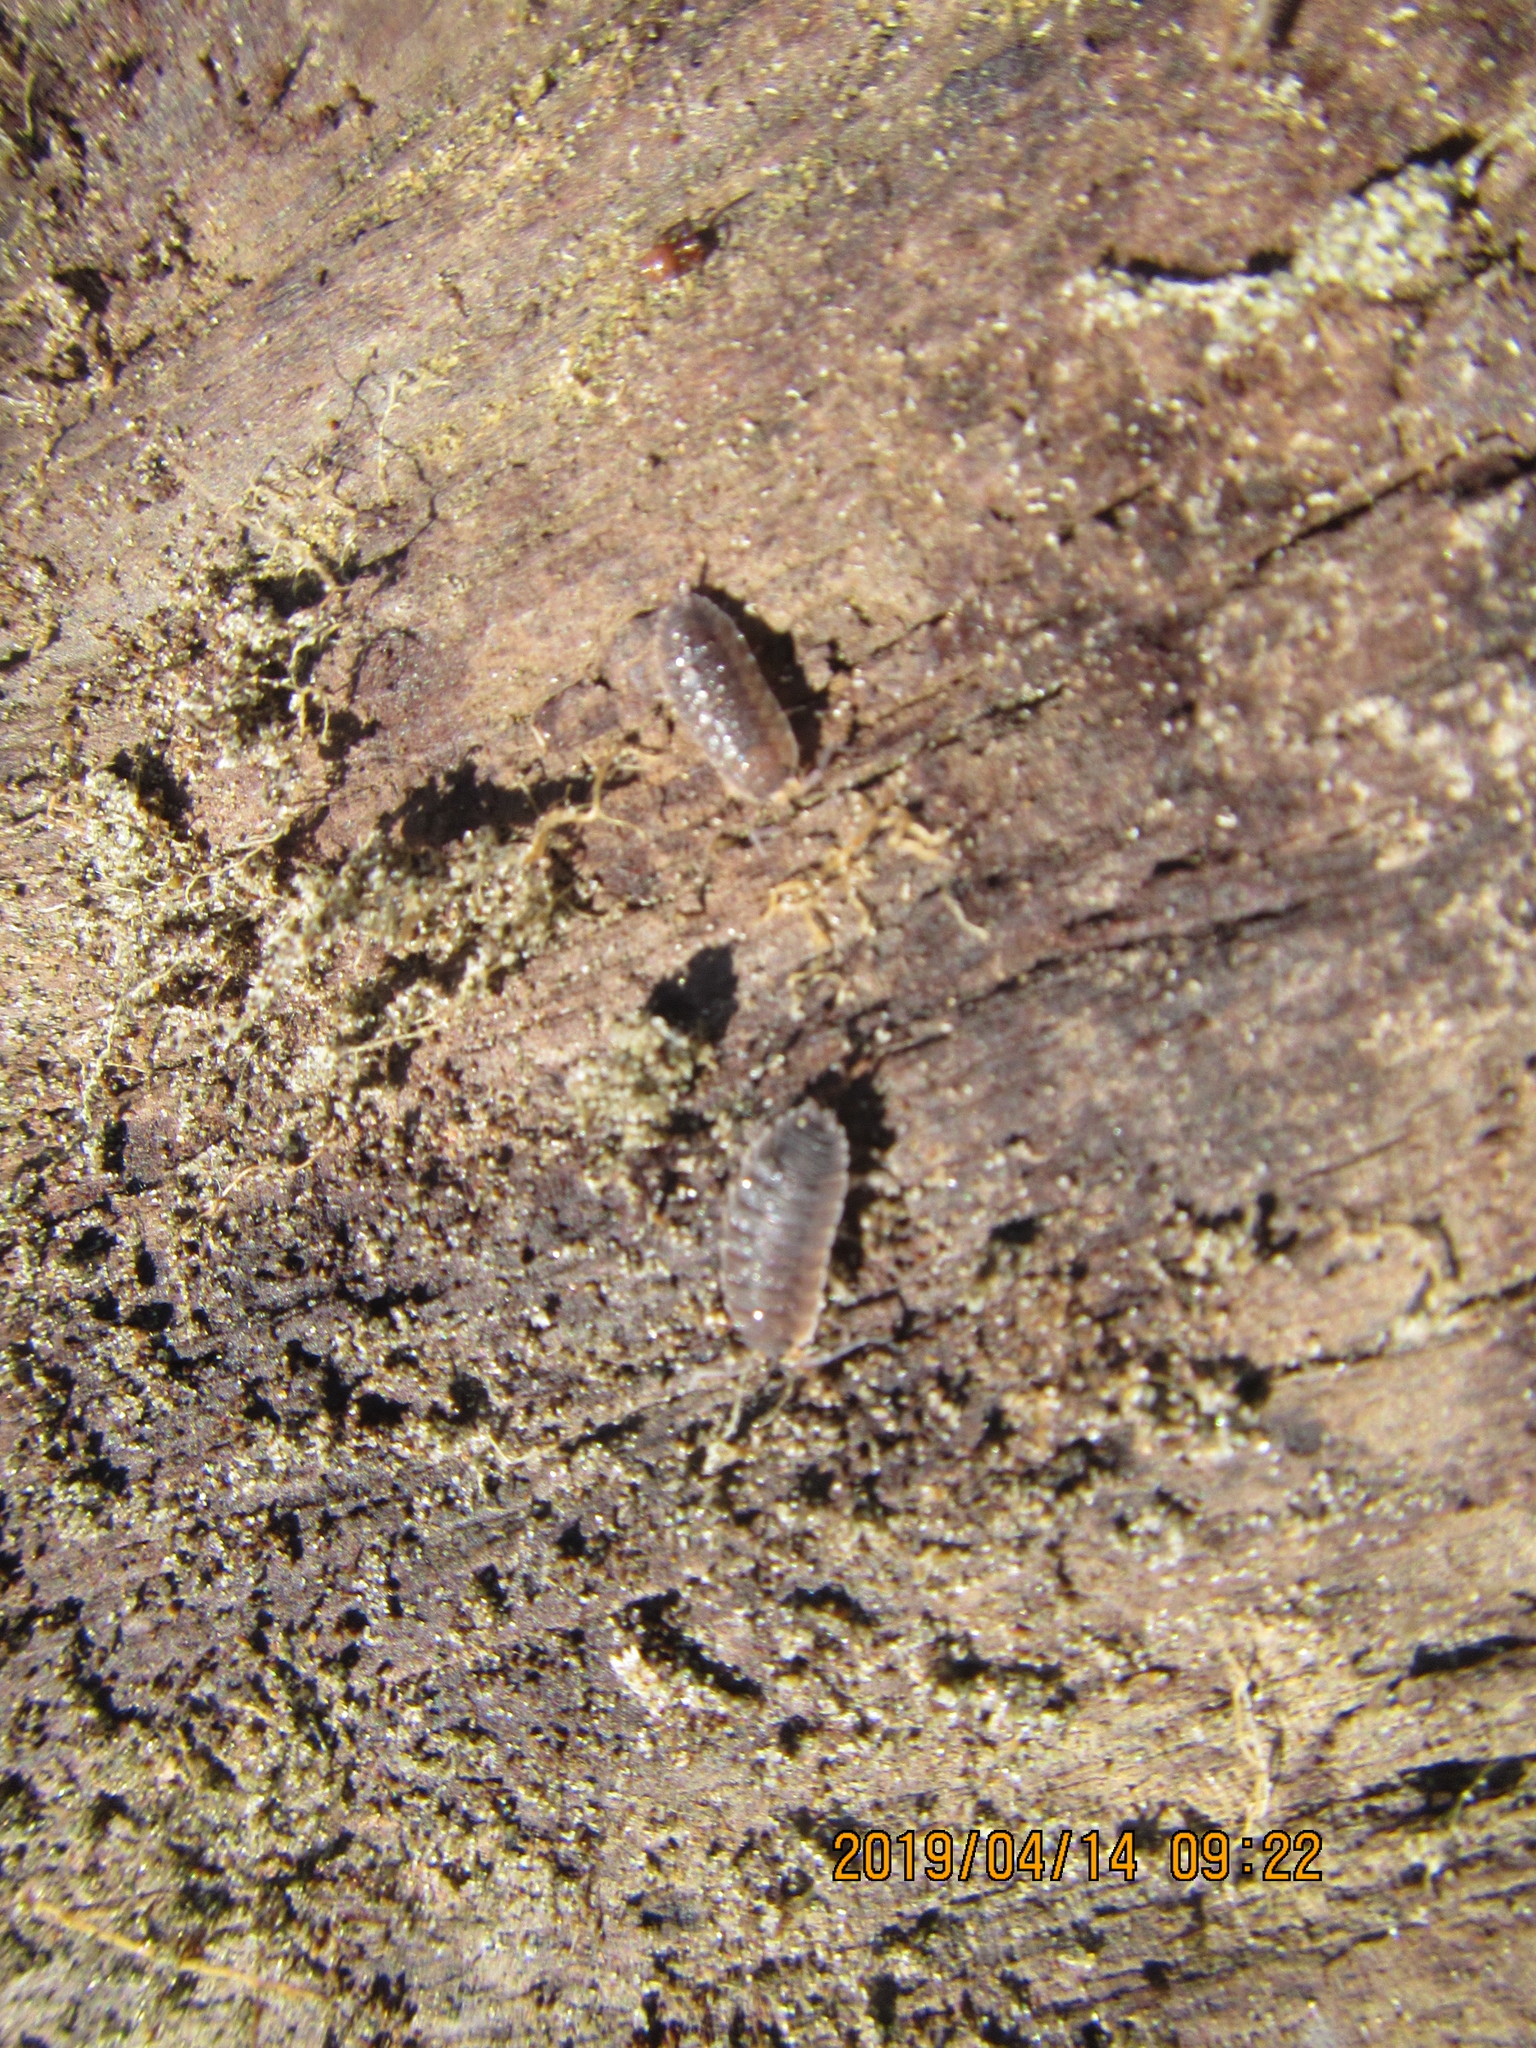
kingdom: Animalia
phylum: Arthropoda
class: Malacostraca
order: Isopoda
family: Porcellionidae
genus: Porcellio
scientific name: Porcellio scaber
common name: Common rough woodlouse
